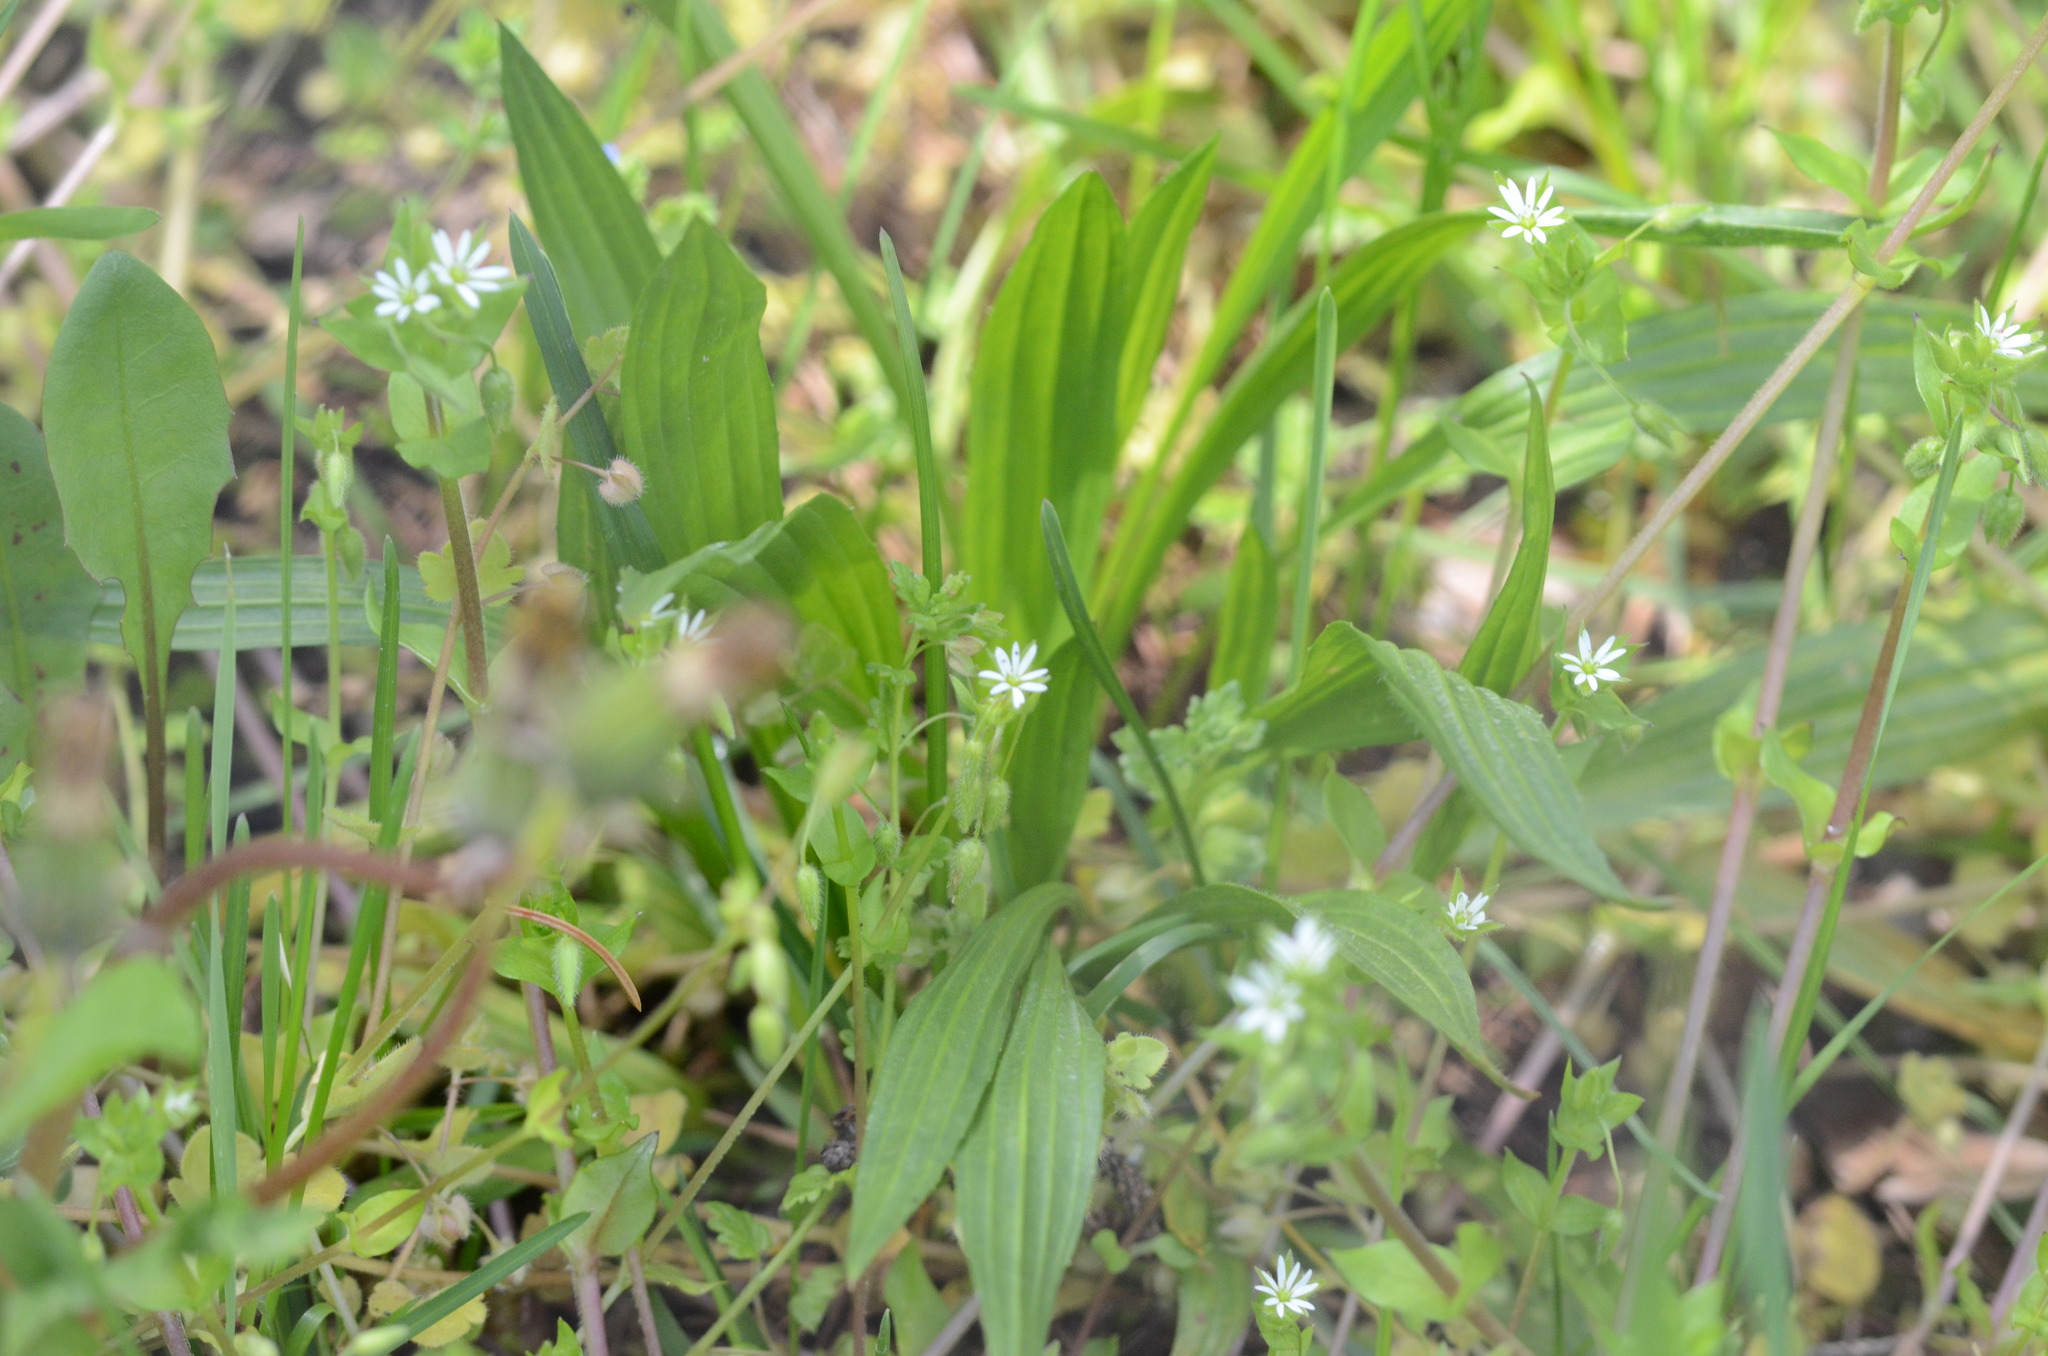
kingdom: Plantae
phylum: Tracheophyta
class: Magnoliopsida
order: Lamiales
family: Plantaginaceae
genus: Plantago
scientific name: Plantago lanceolata
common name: Ribwort plantain
